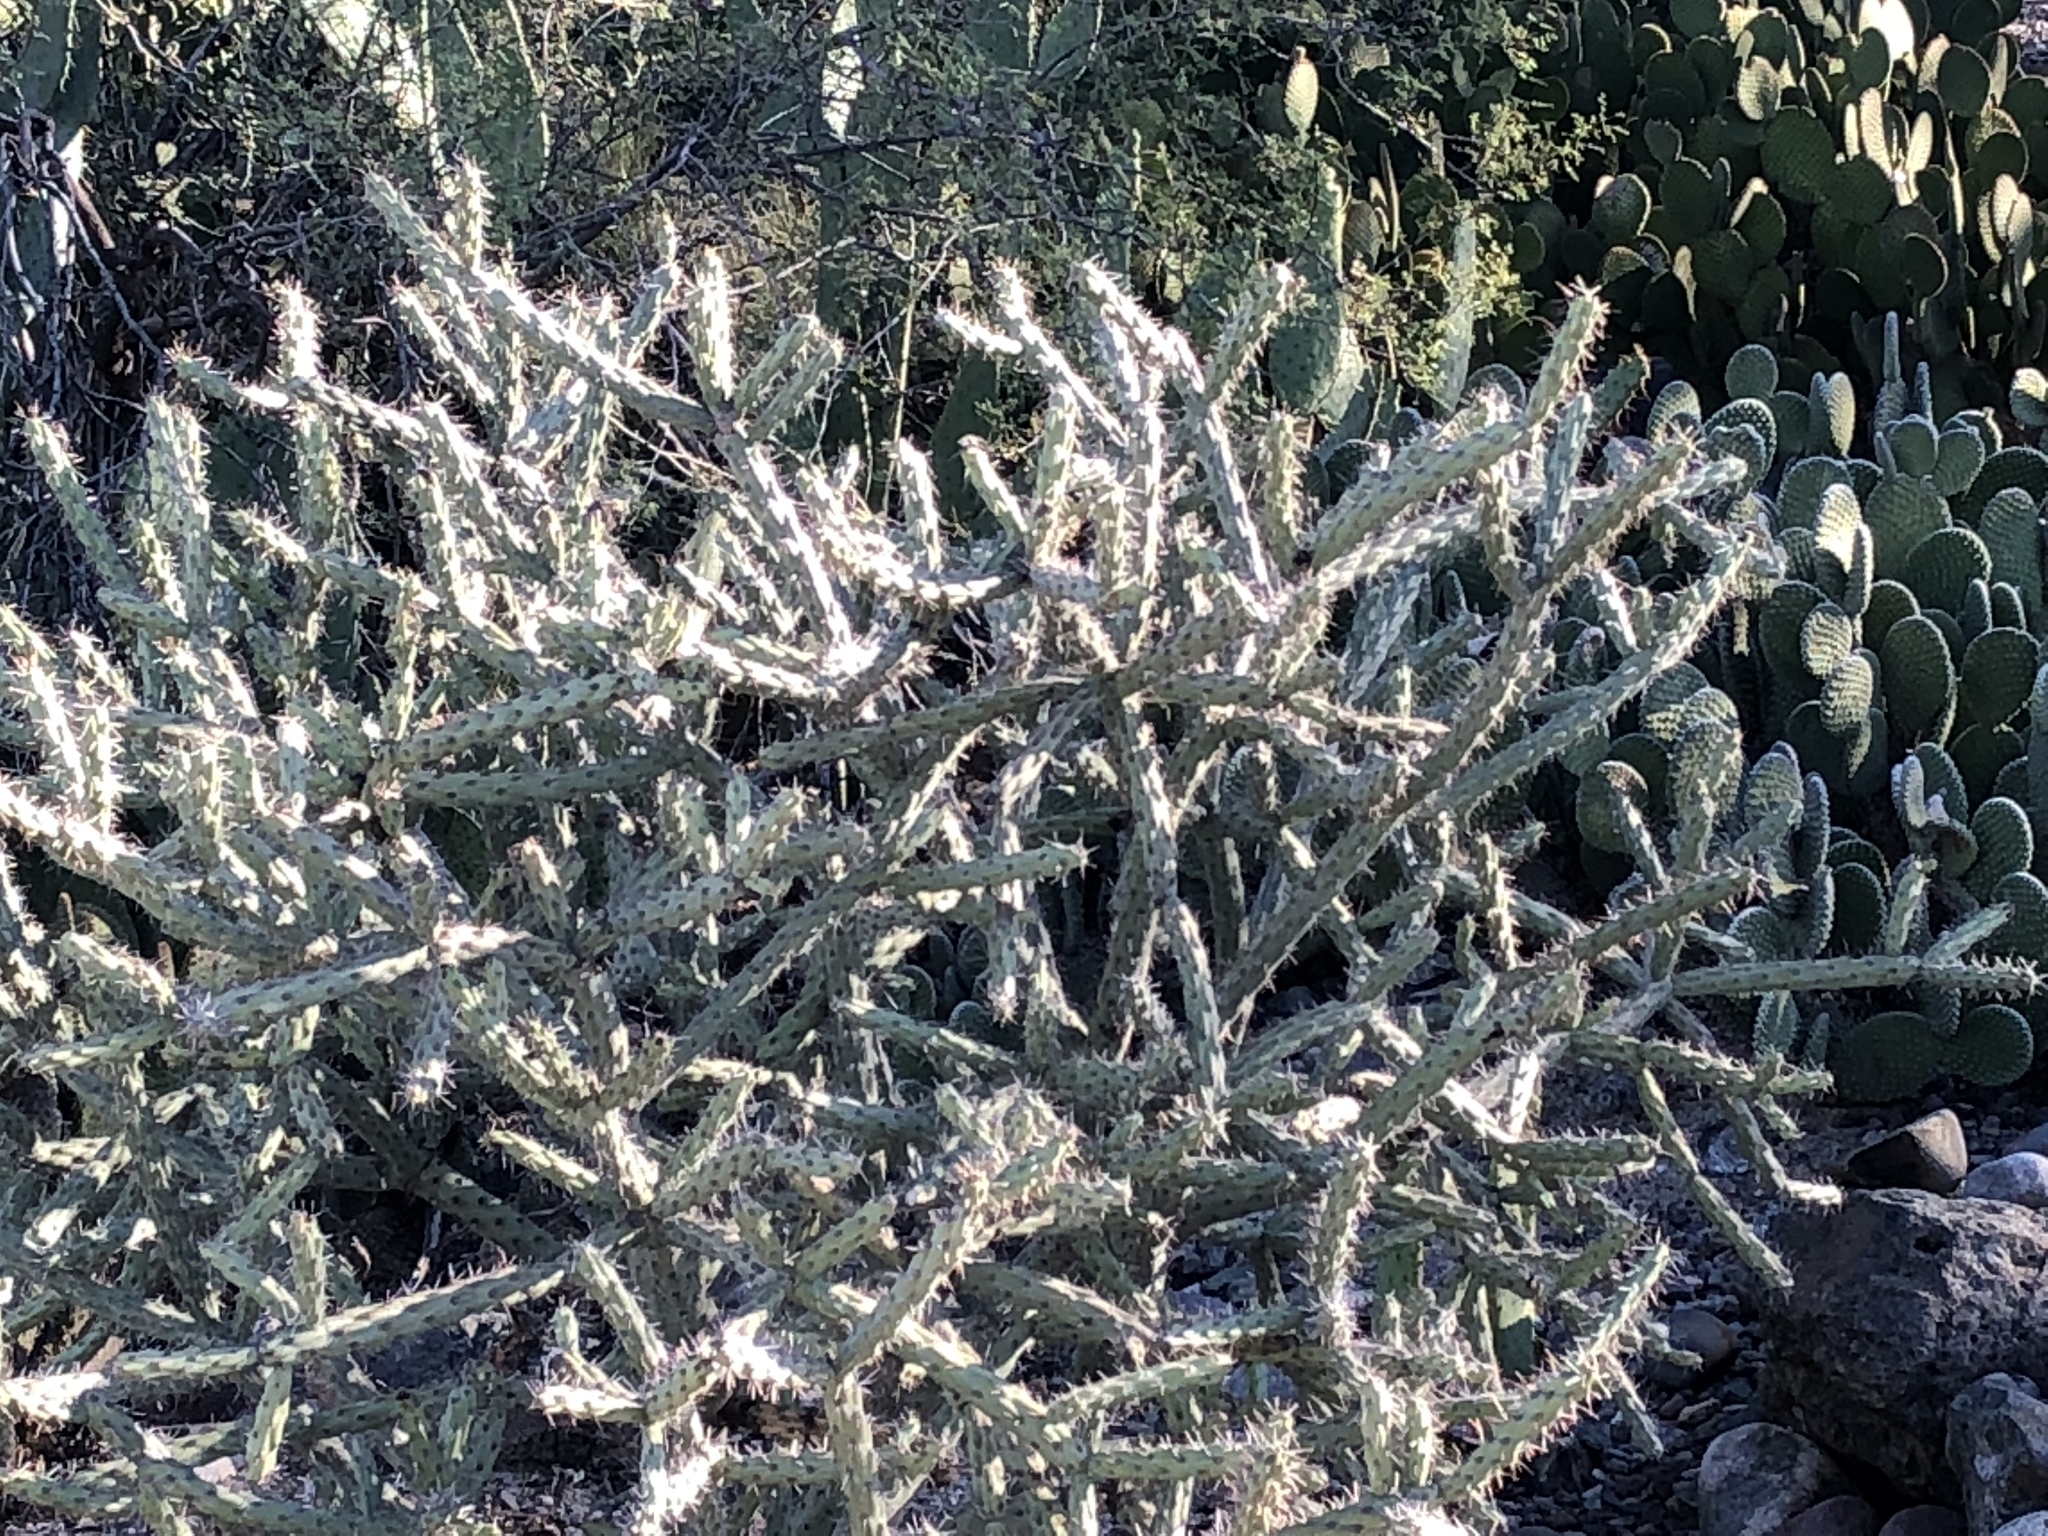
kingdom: Plantae
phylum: Tracheophyta
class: Magnoliopsida
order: Caryophyllales
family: Cactaceae
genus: Cylindropuntia
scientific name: Cylindropuntia thurberi
